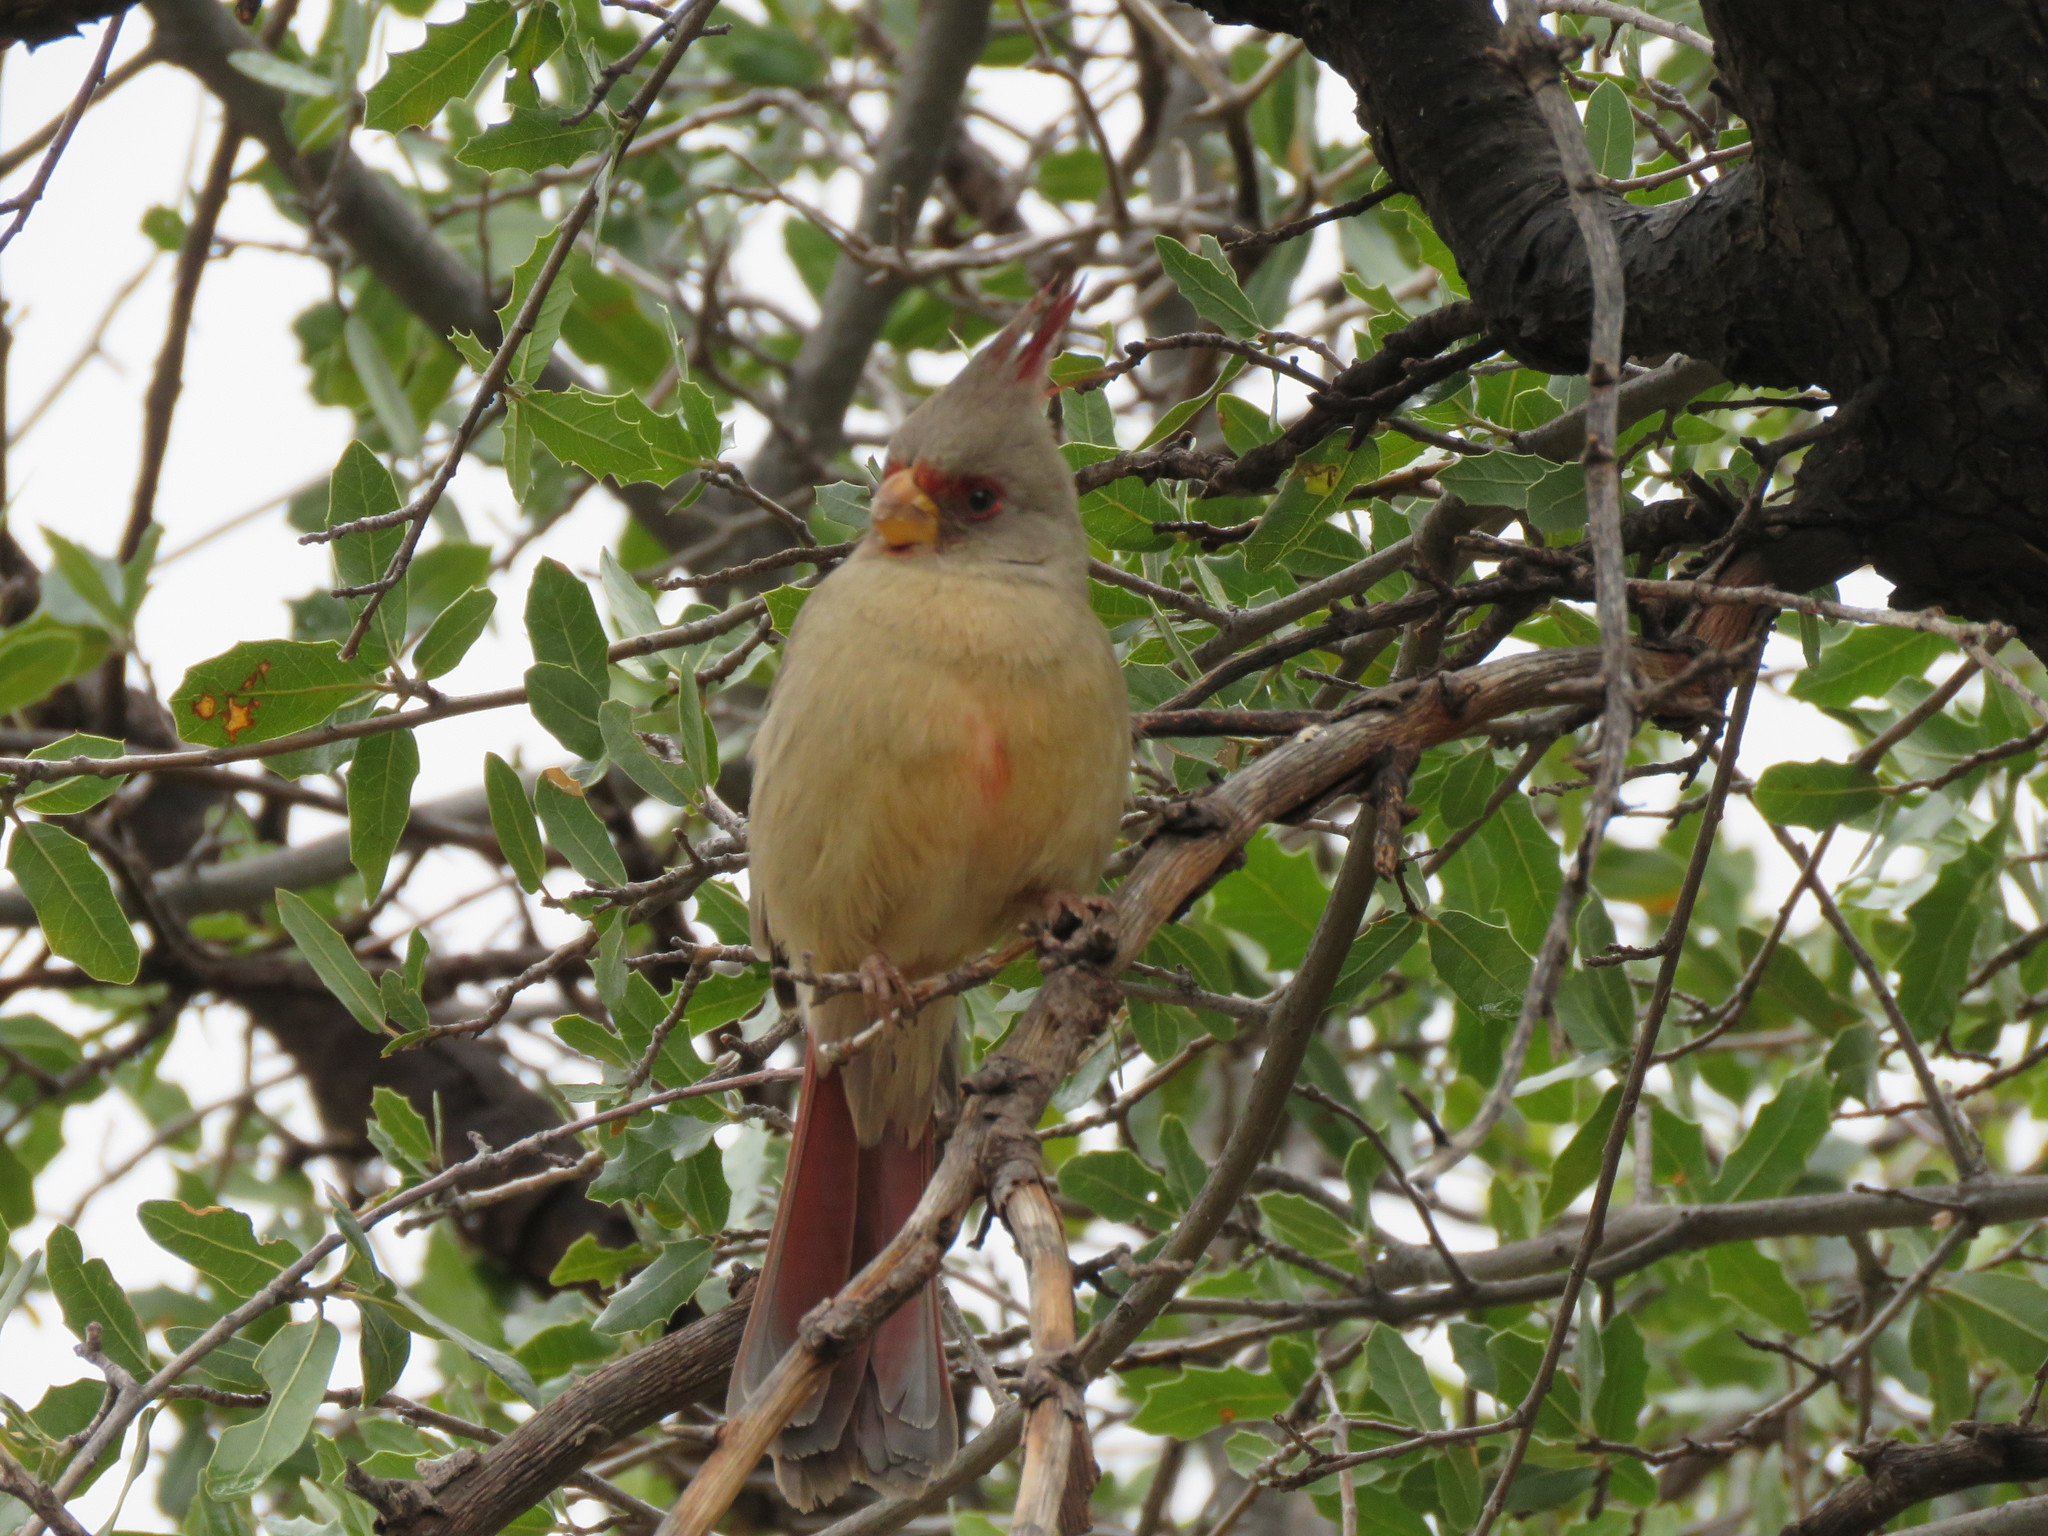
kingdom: Animalia
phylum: Chordata
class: Aves
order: Passeriformes
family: Cardinalidae
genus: Cardinalis
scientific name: Cardinalis sinuatus
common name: Pyrrhuloxia
